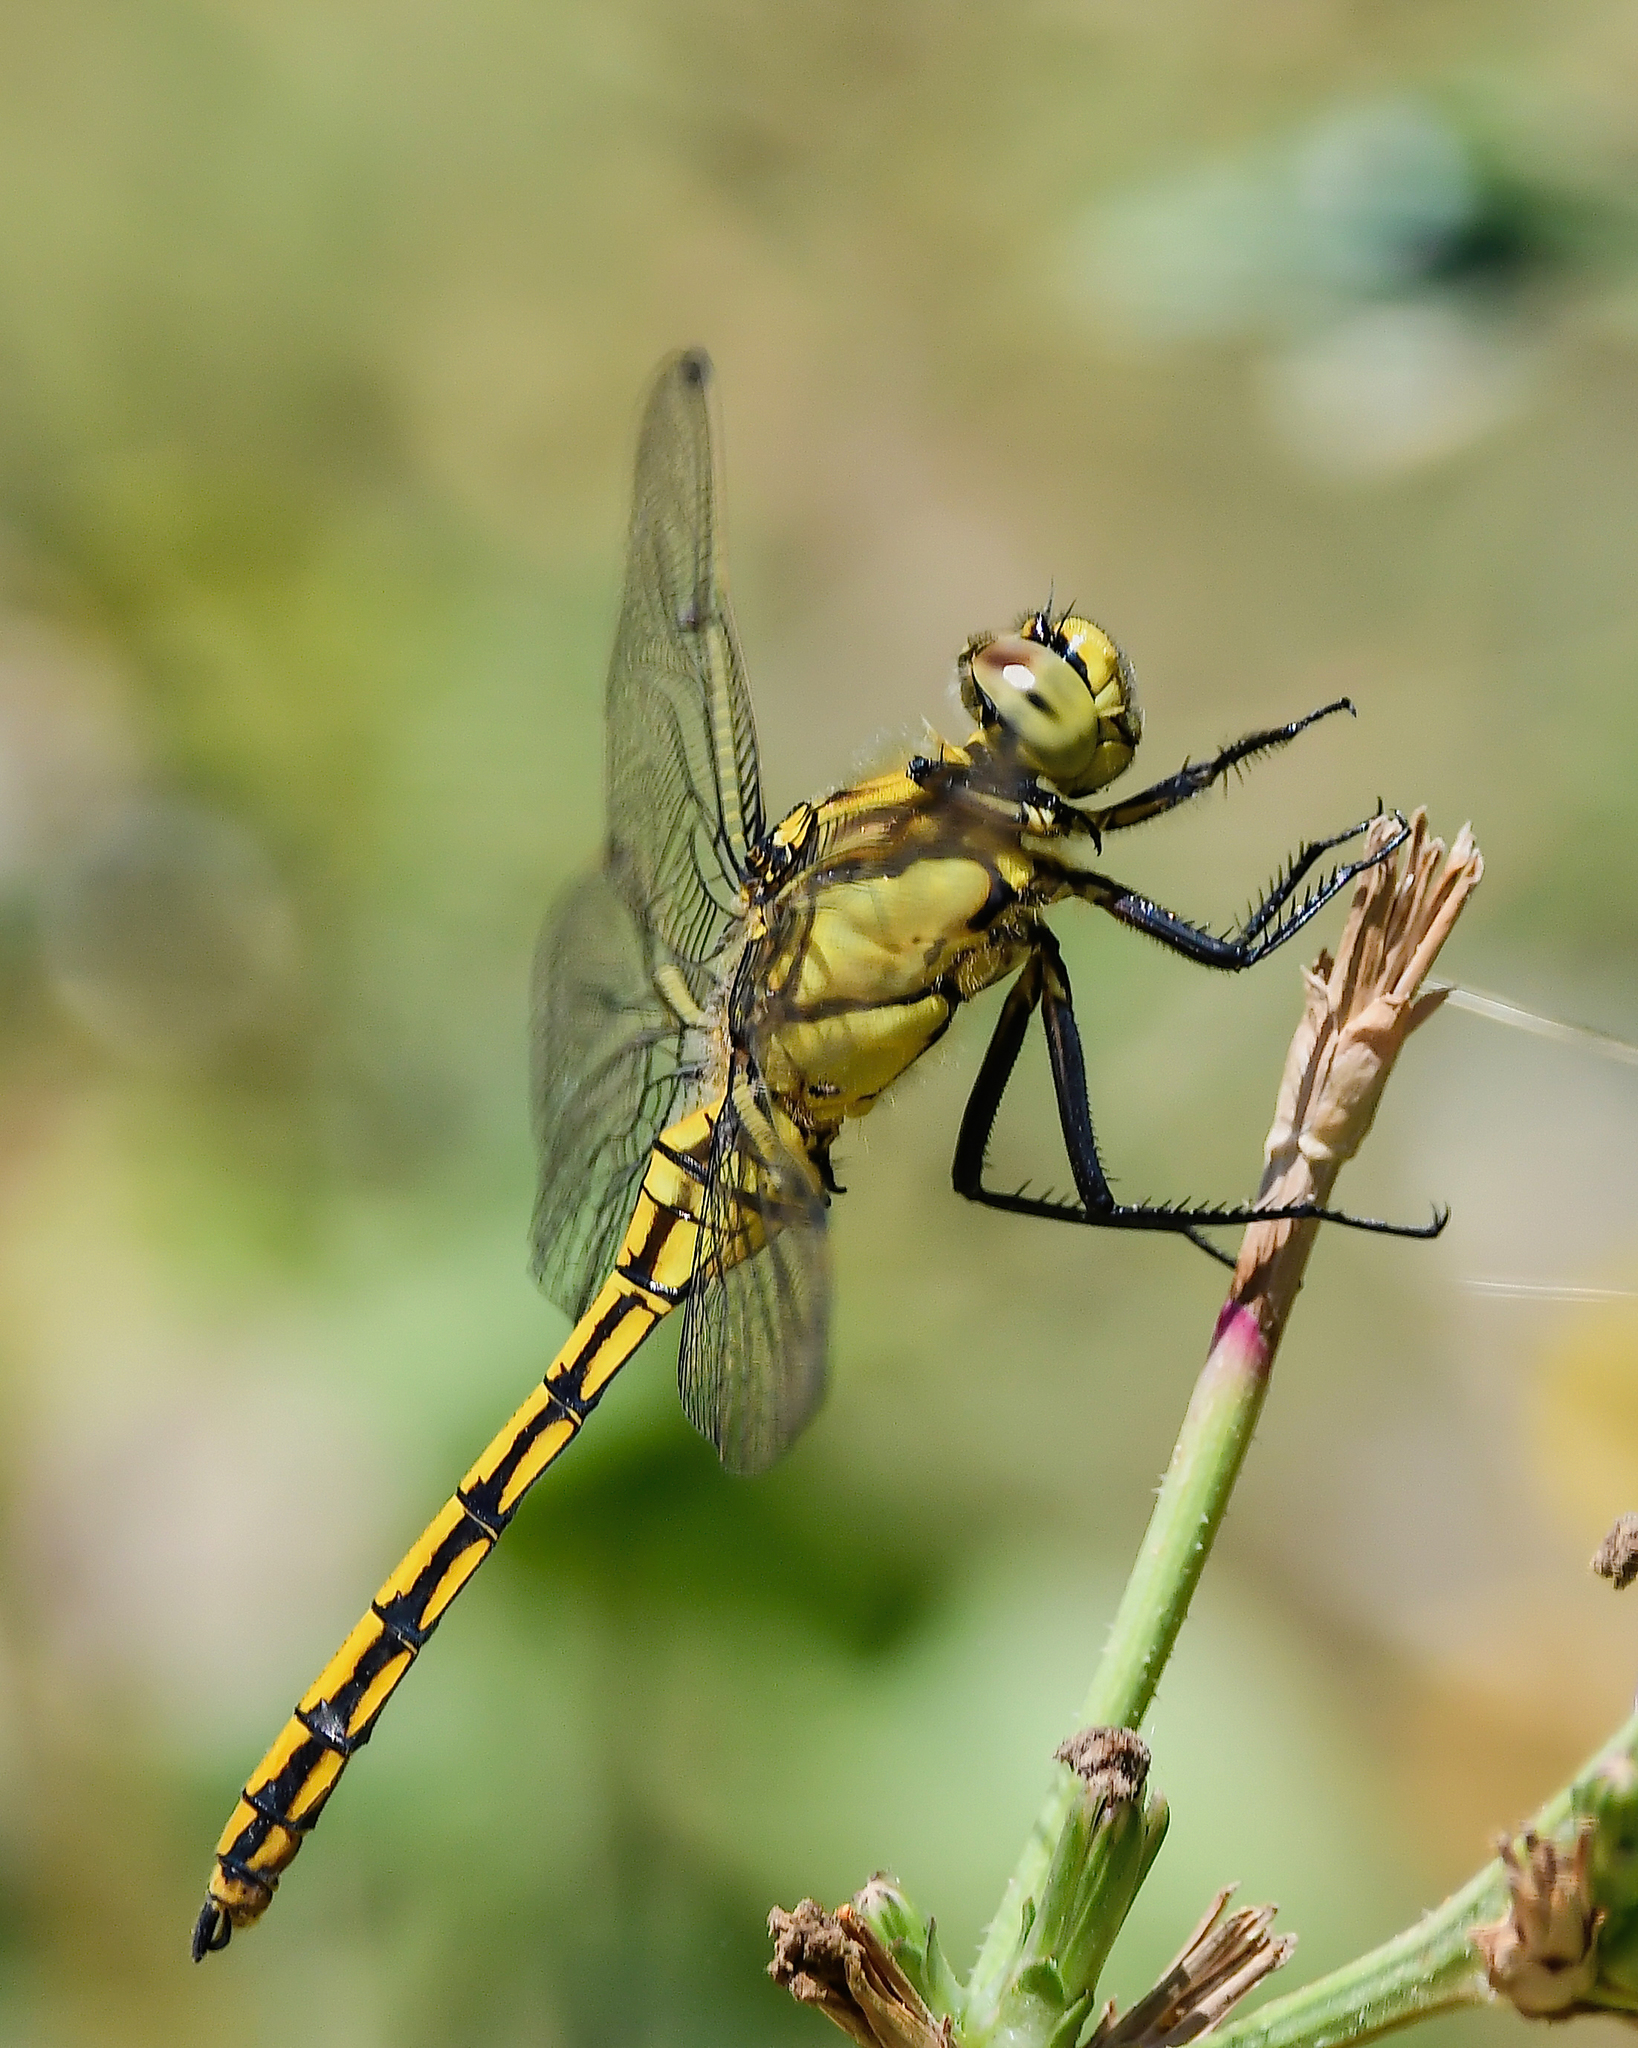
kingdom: Animalia
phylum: Arthropoda
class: Insecta
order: Odonata
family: Libellulidae
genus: Orthetrum
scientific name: Orthetrum cancellatum
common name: Black-tailed skimmer
